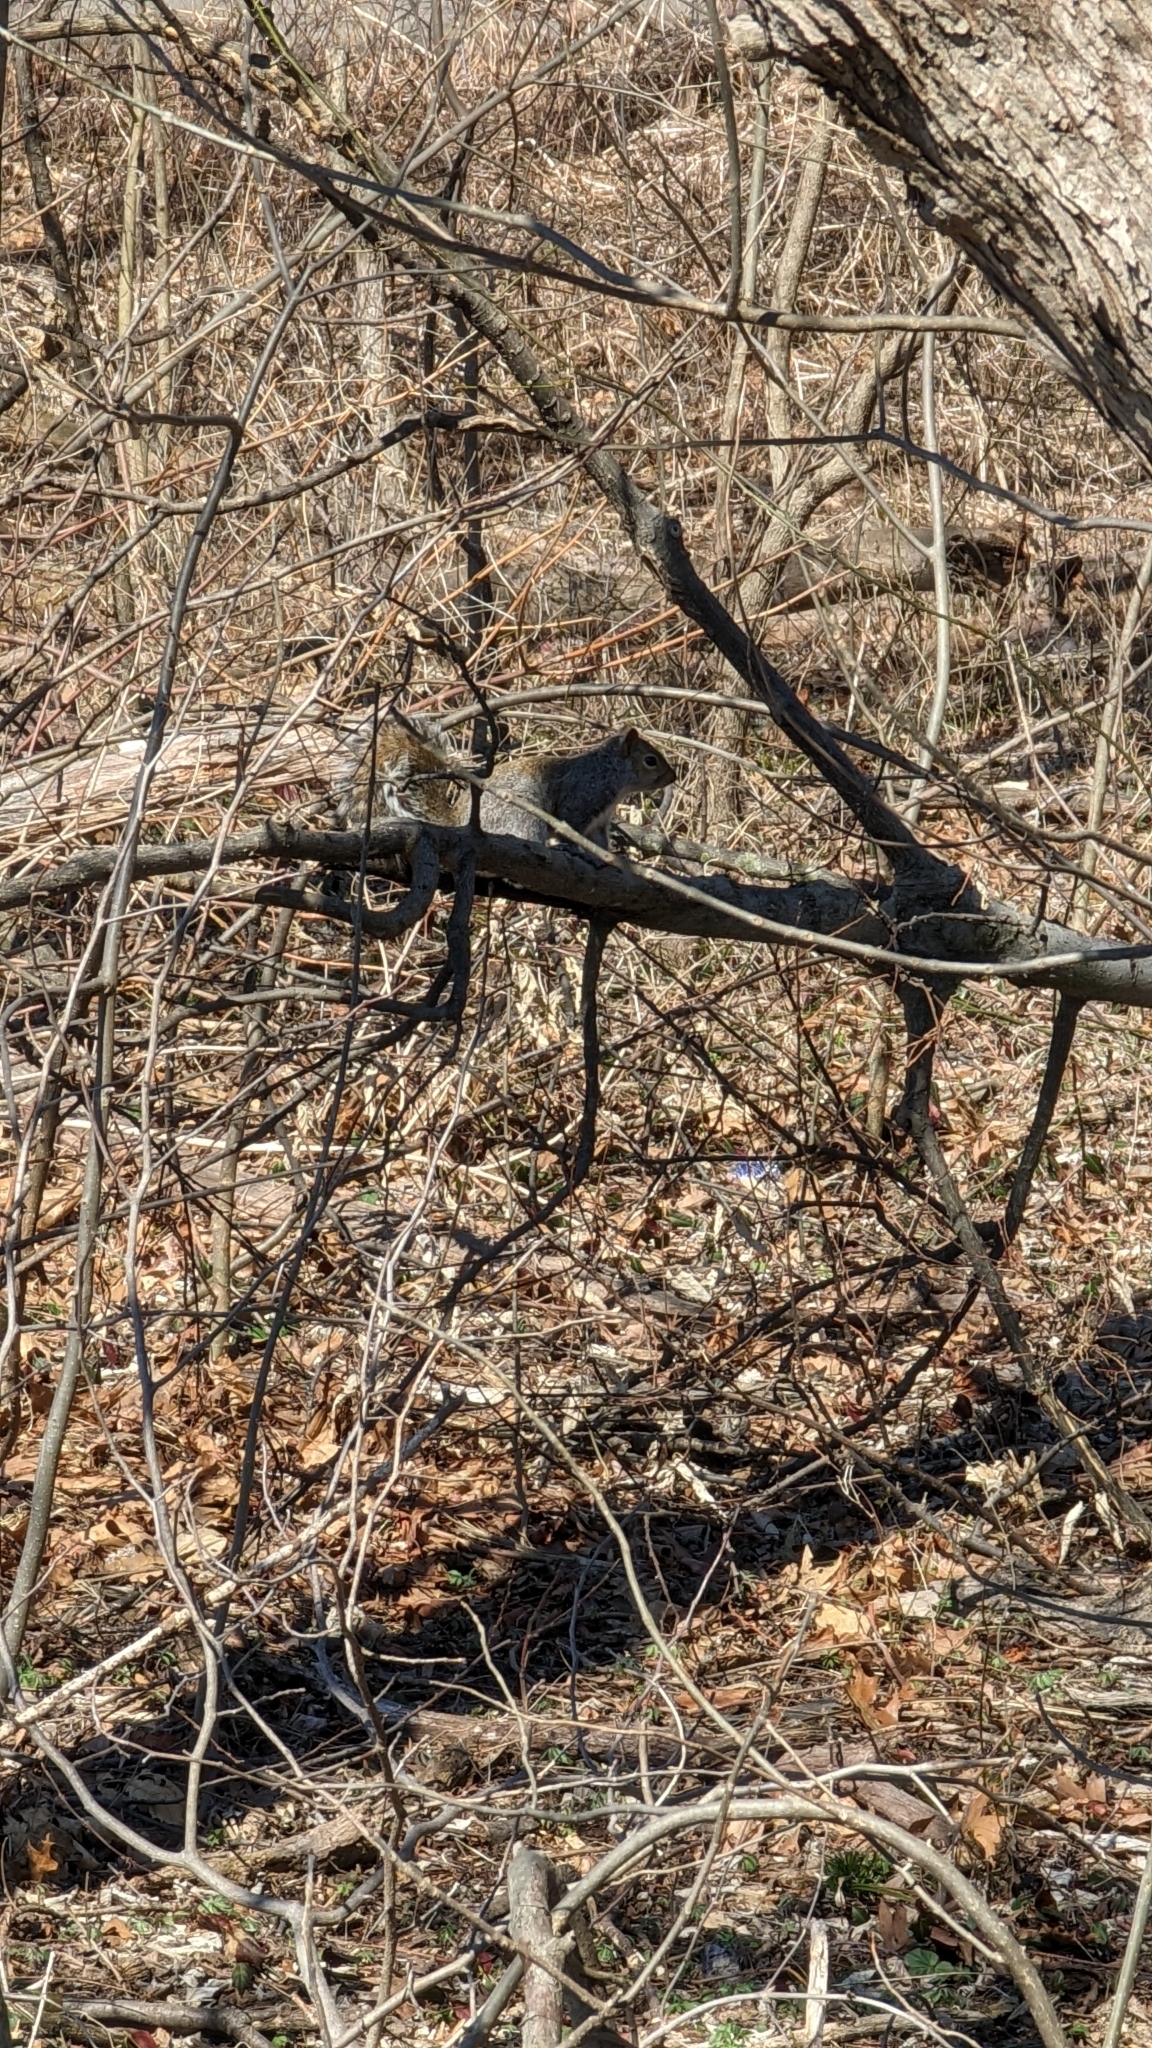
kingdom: Animalia
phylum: Chordata
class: Mammalia
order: Rodentia
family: Sciuridae
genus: Sciurus
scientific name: Sciurus carolinensis
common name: Eastern gray squirrel
